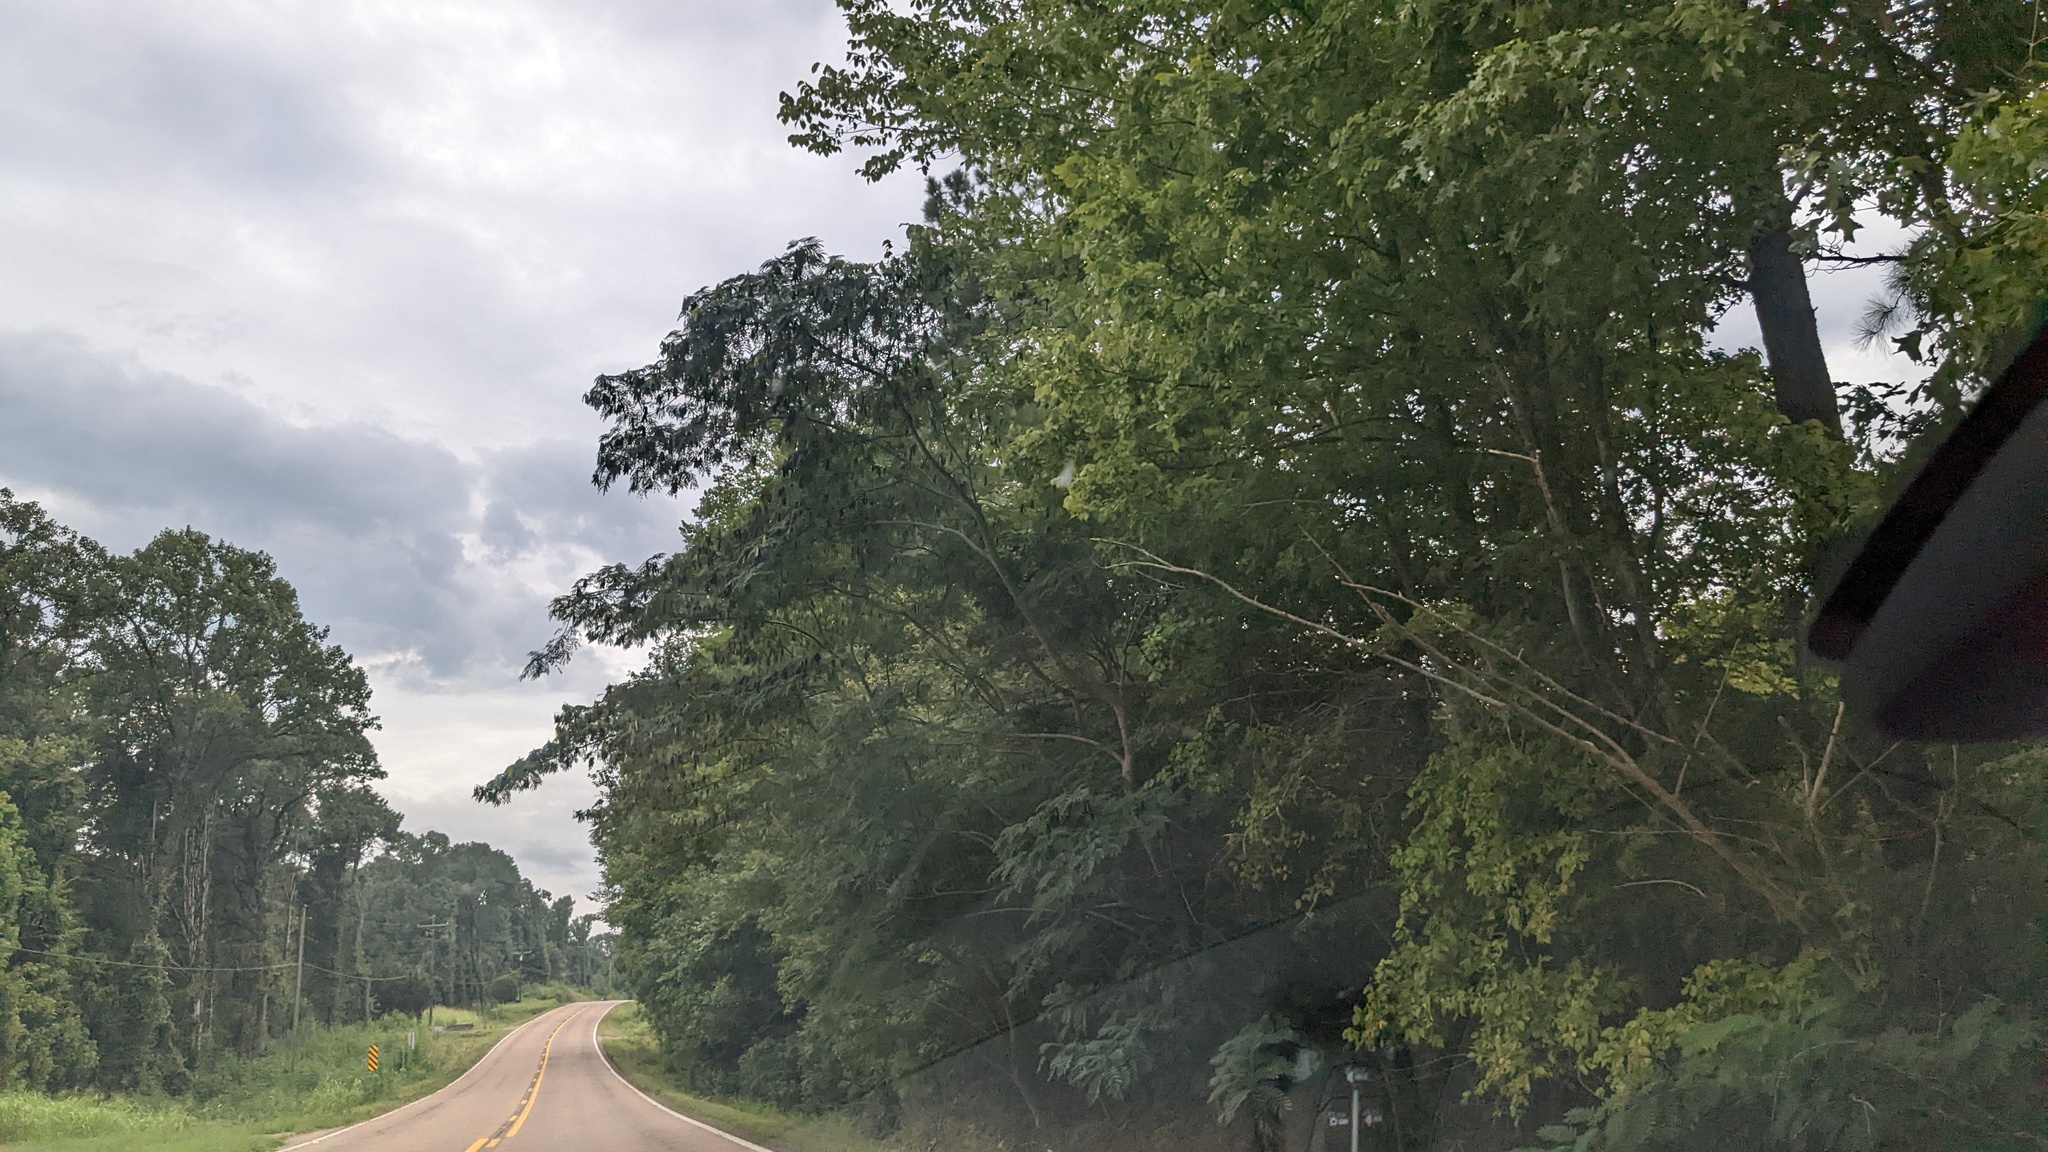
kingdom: Plantae
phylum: Tracheophyta
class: Magnoliopsida
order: Fabales
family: Fabaceae
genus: Albizia
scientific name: Albizia julibrissin
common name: Silktree
